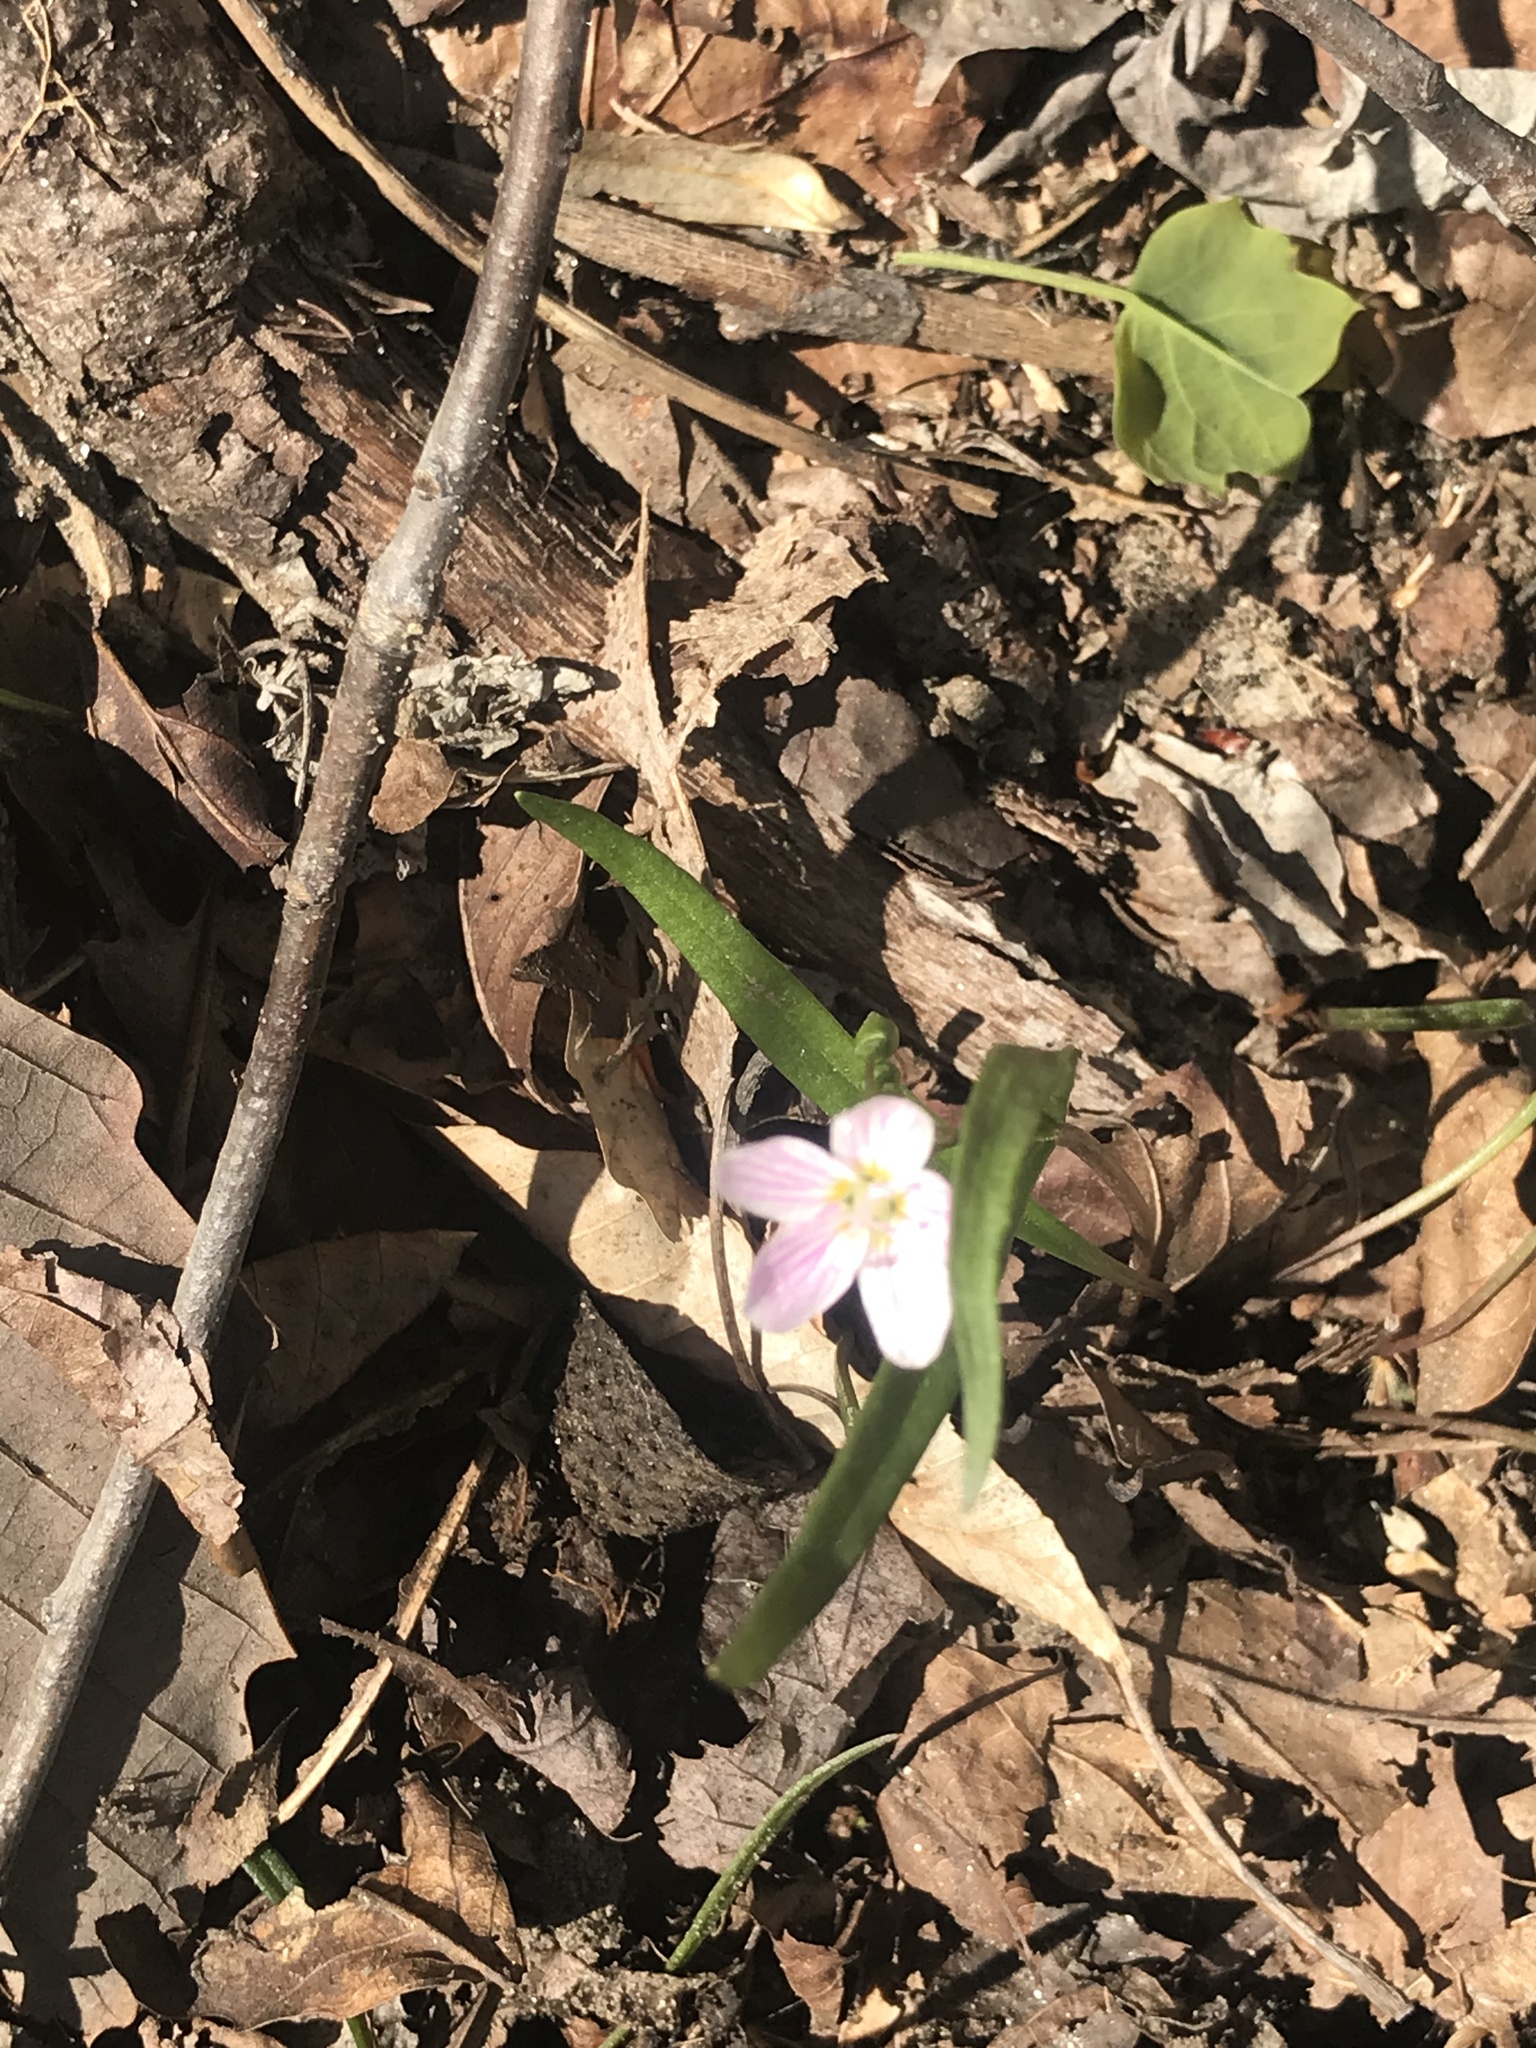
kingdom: Plantae
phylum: Tracheophyta
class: Magnoliopsida
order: Caryophyllales
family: Montiaceae
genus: Claytonia
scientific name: Claytonia virginica
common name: Virginia springbeauty
